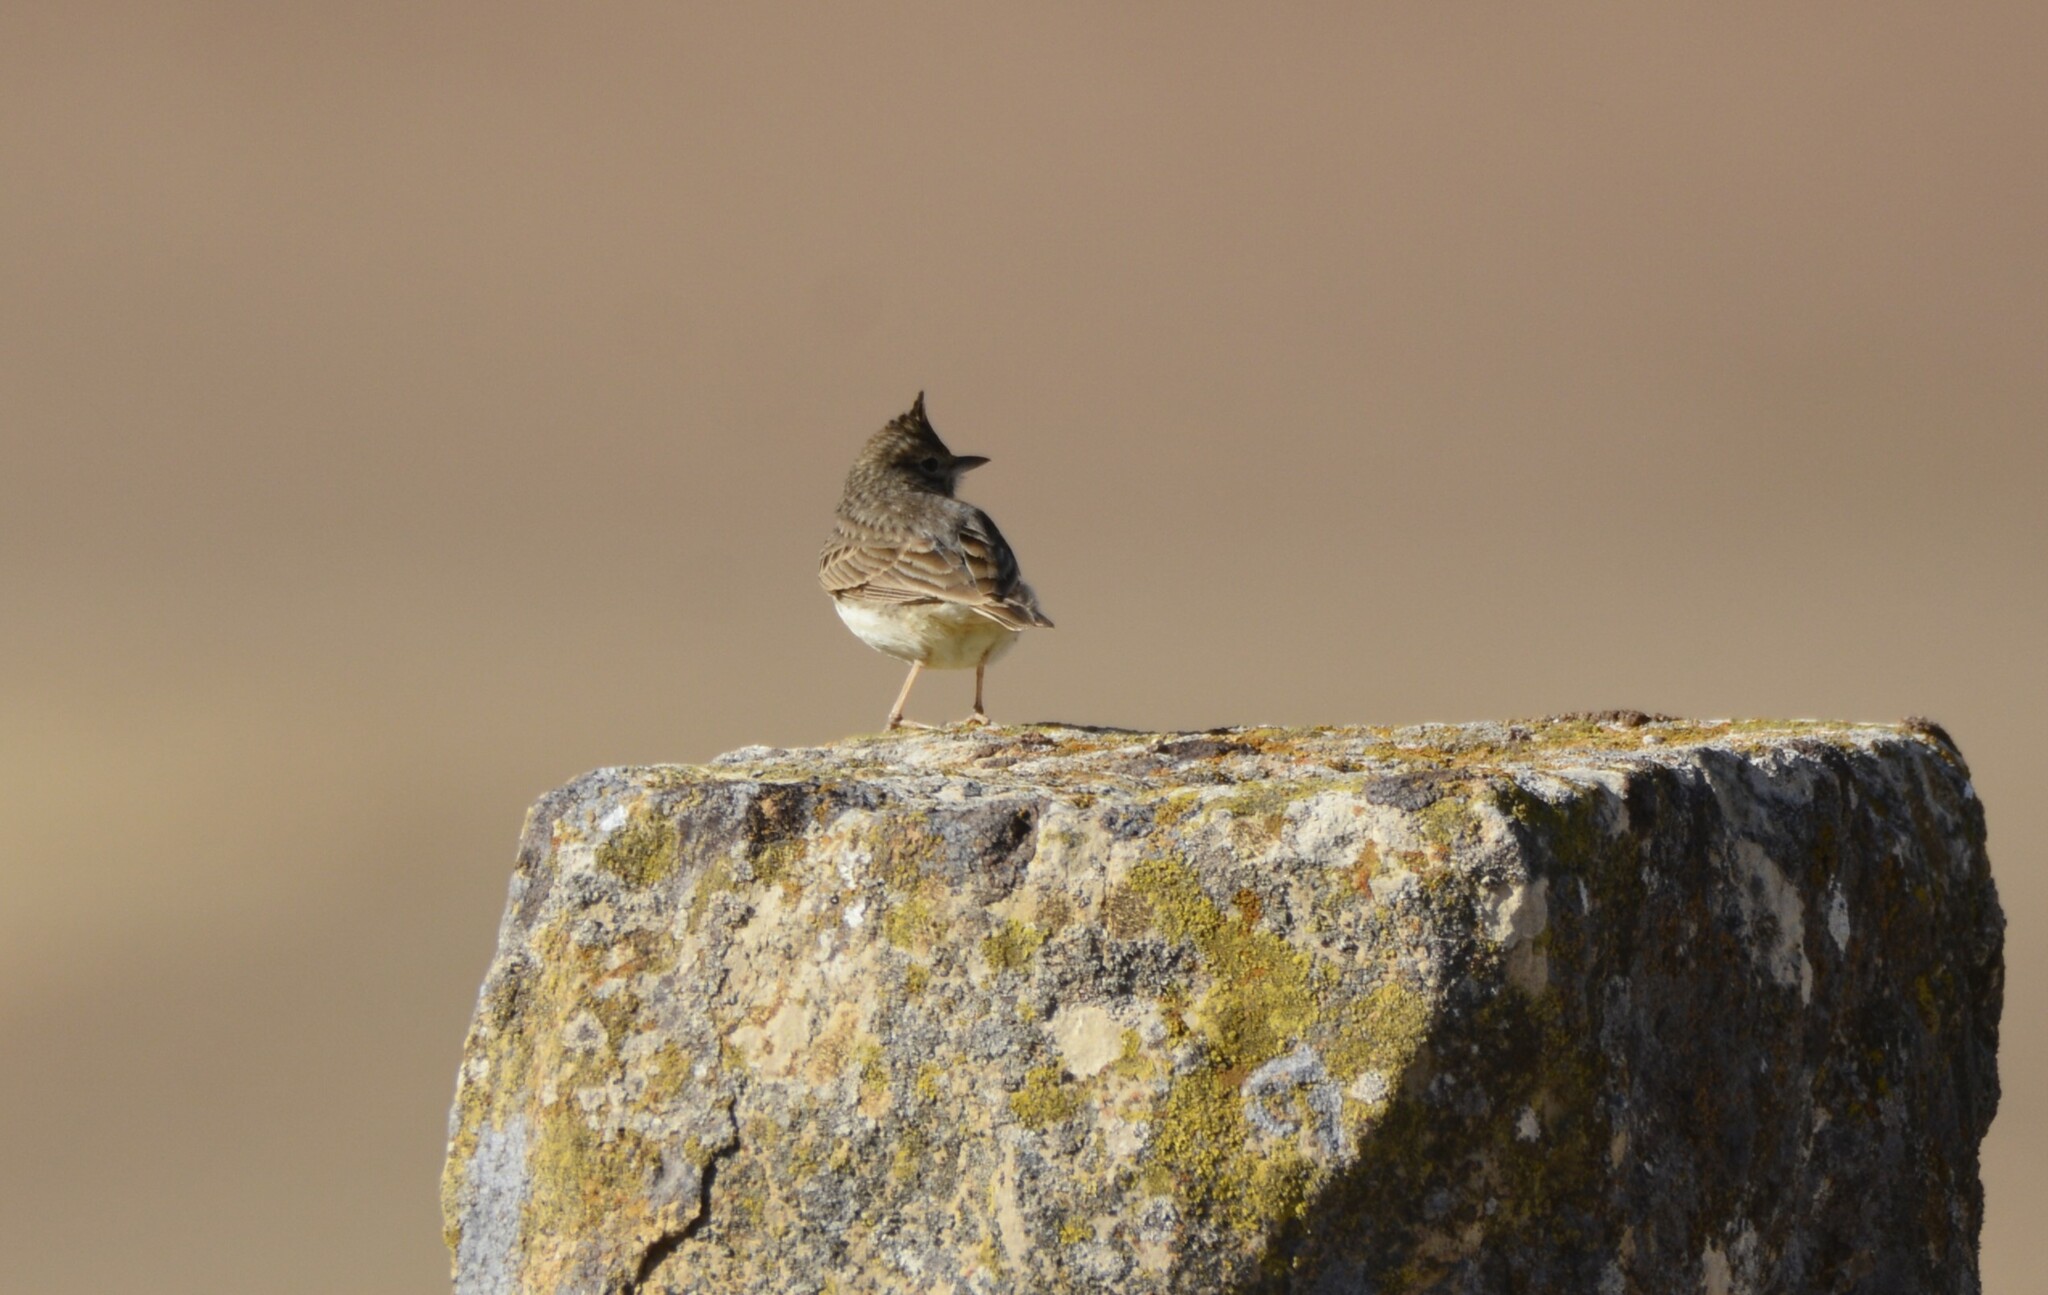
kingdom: Animalia
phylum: Chordata
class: Aves
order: Passeriformes
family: Alaudidae
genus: Galerida
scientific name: Galerida theklae
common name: Thekla lark
